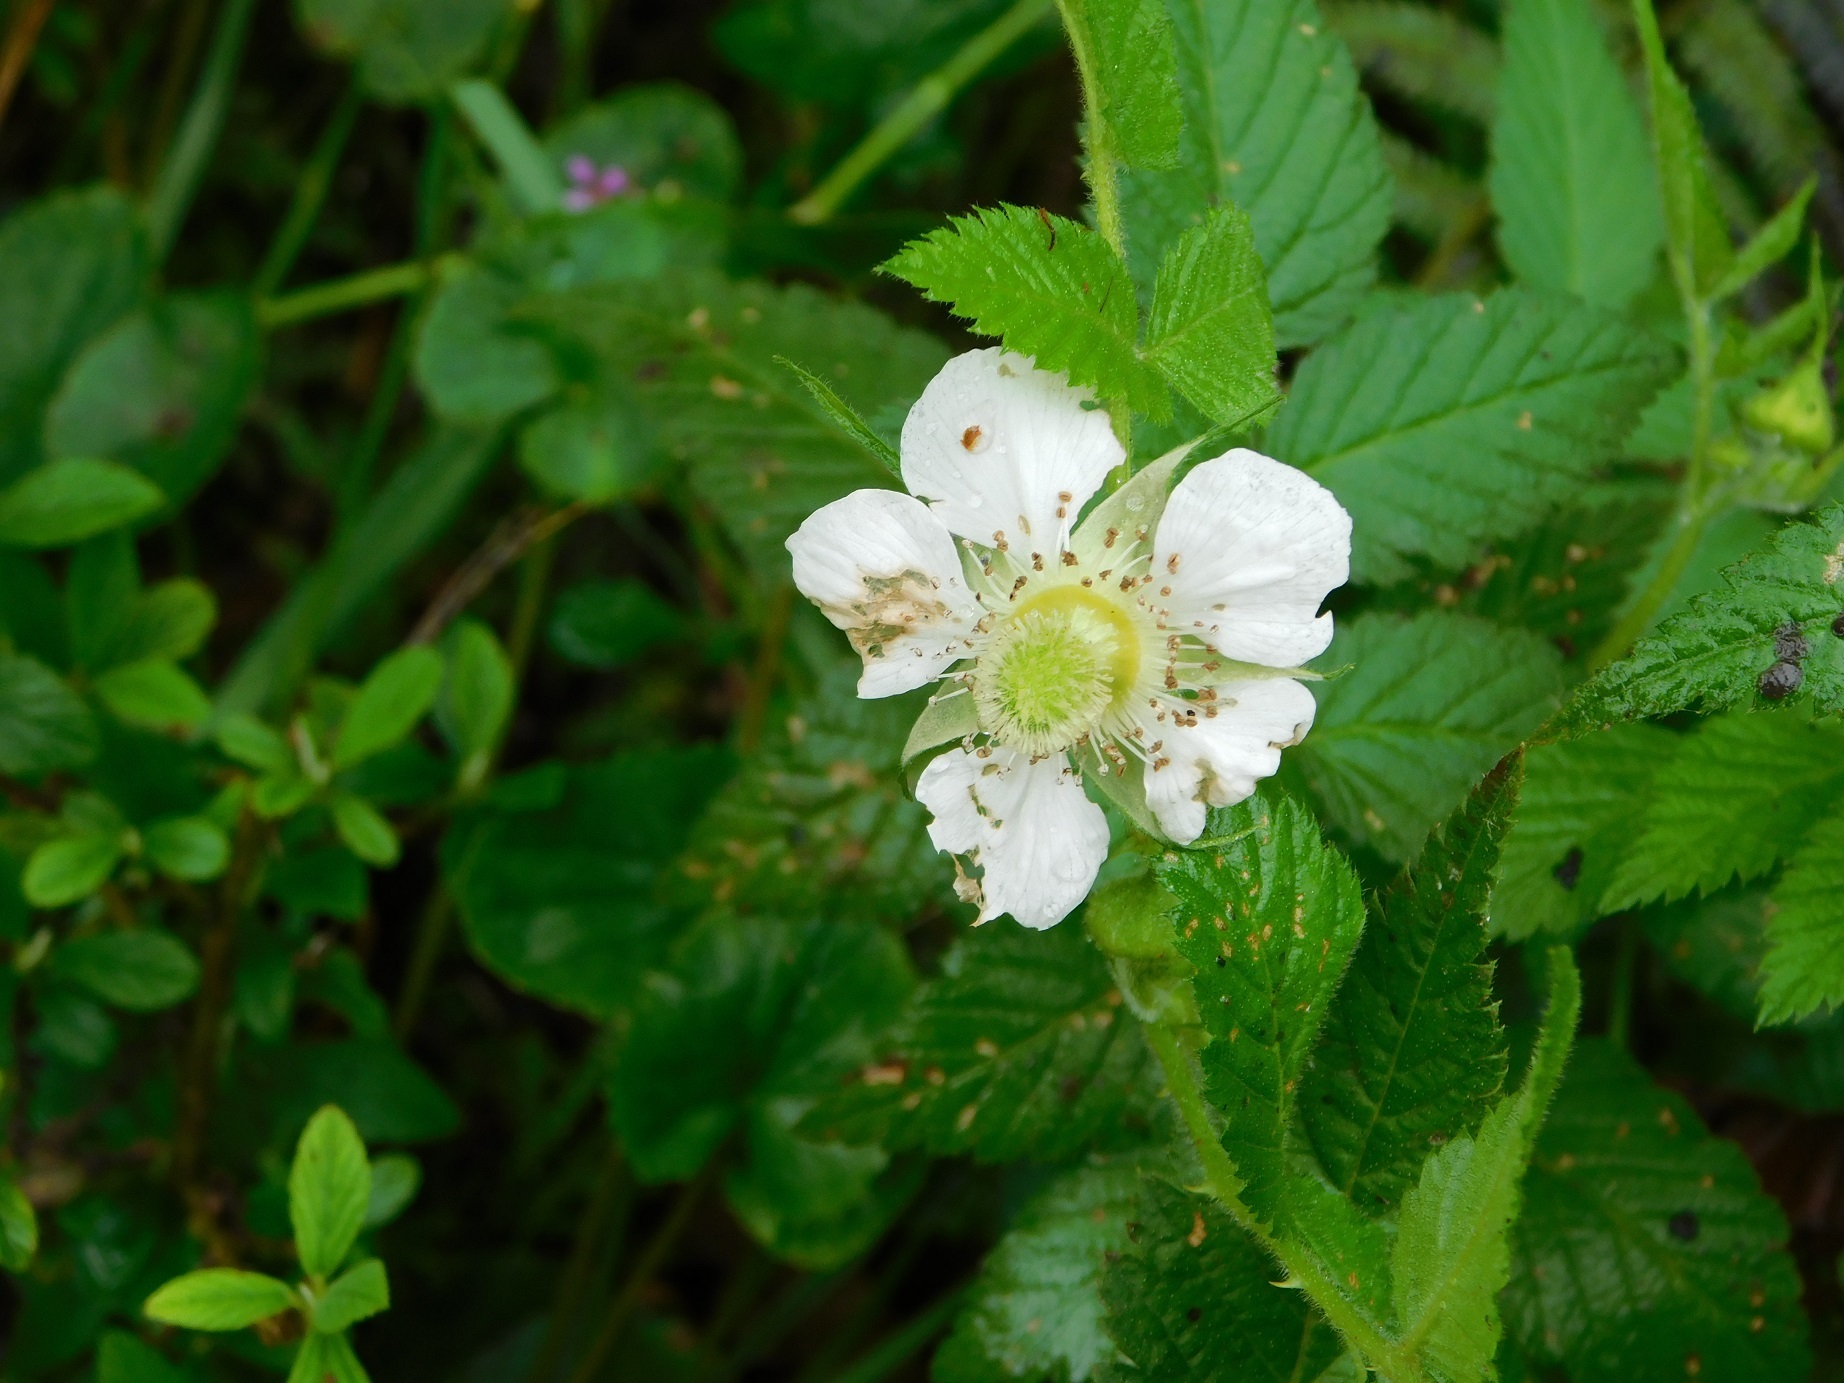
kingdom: Plantae
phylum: Tracheophyta
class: Magnoliopsida
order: Rosales
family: Rosaceae
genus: Rubus
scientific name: Rubus rosifolius
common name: Roseleaf raspberry
